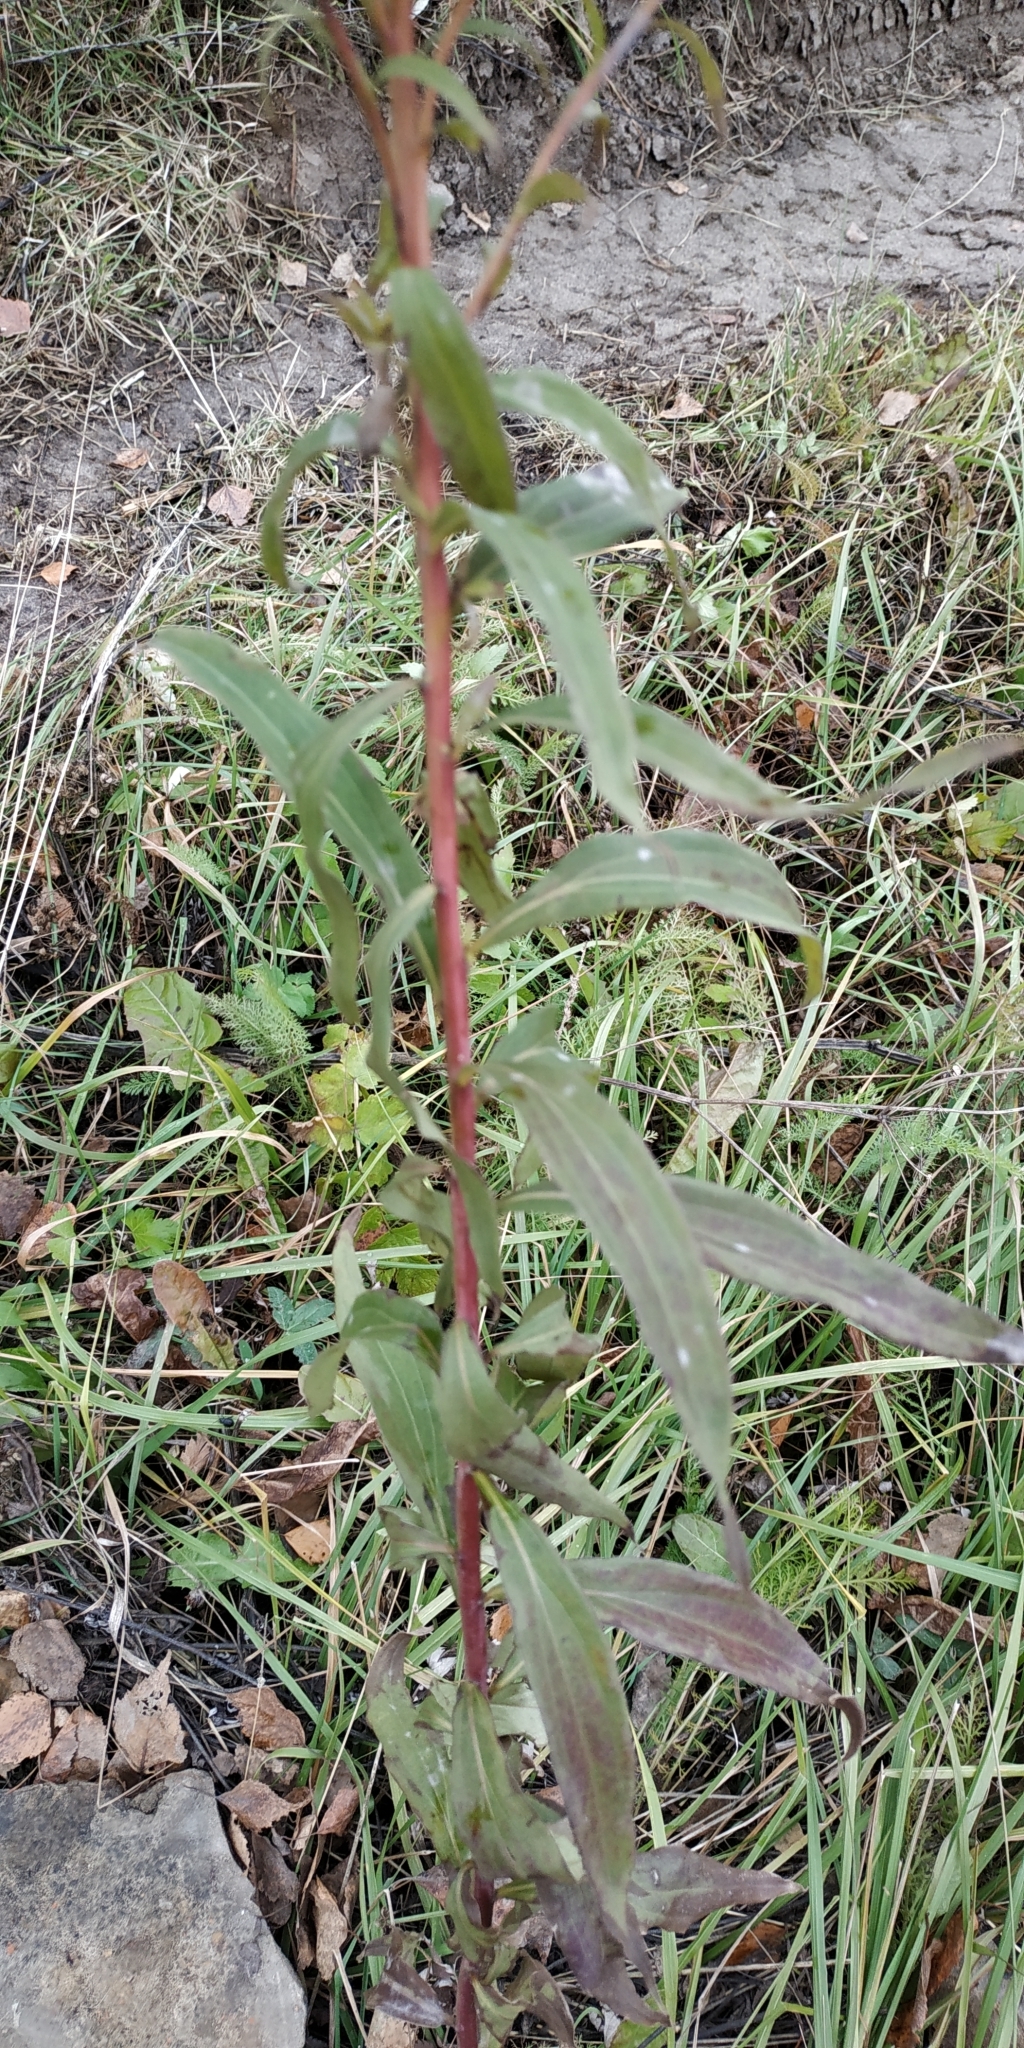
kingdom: Plantae
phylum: Tracheophyta
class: Magnoliopsida
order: Asterales
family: Asteraceae
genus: Solidago
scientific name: Solidago gigantea
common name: Giant goldenrod
